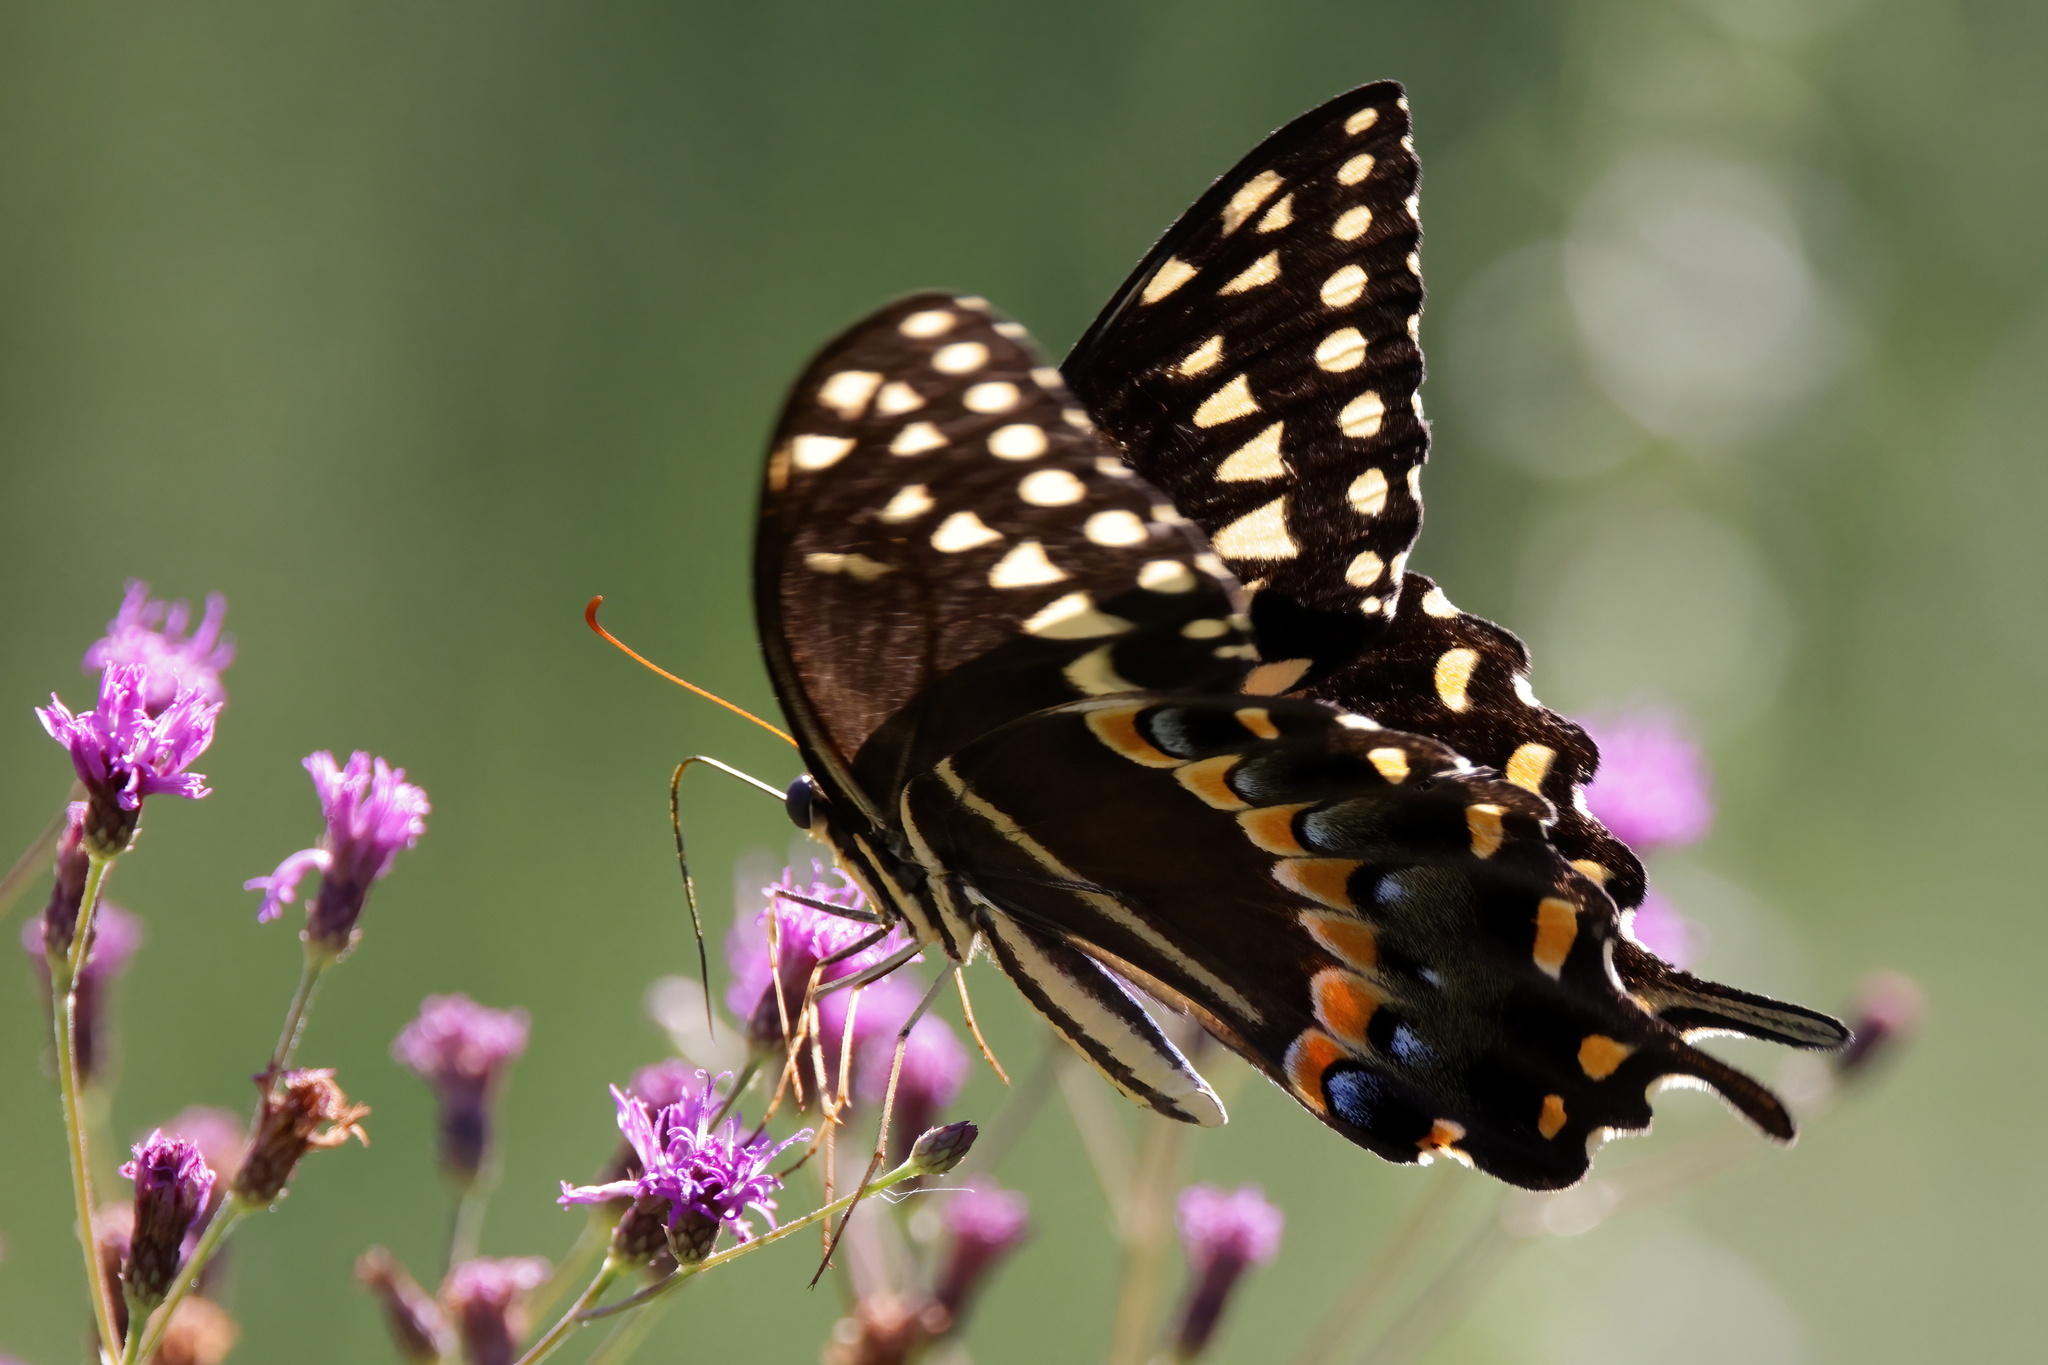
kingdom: Animalia
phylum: Arthropoda
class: Insecta
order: Lepidoptera
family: Papilionidae
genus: Papilio
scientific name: Papilio palamedes
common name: Palamedes swallowtail
